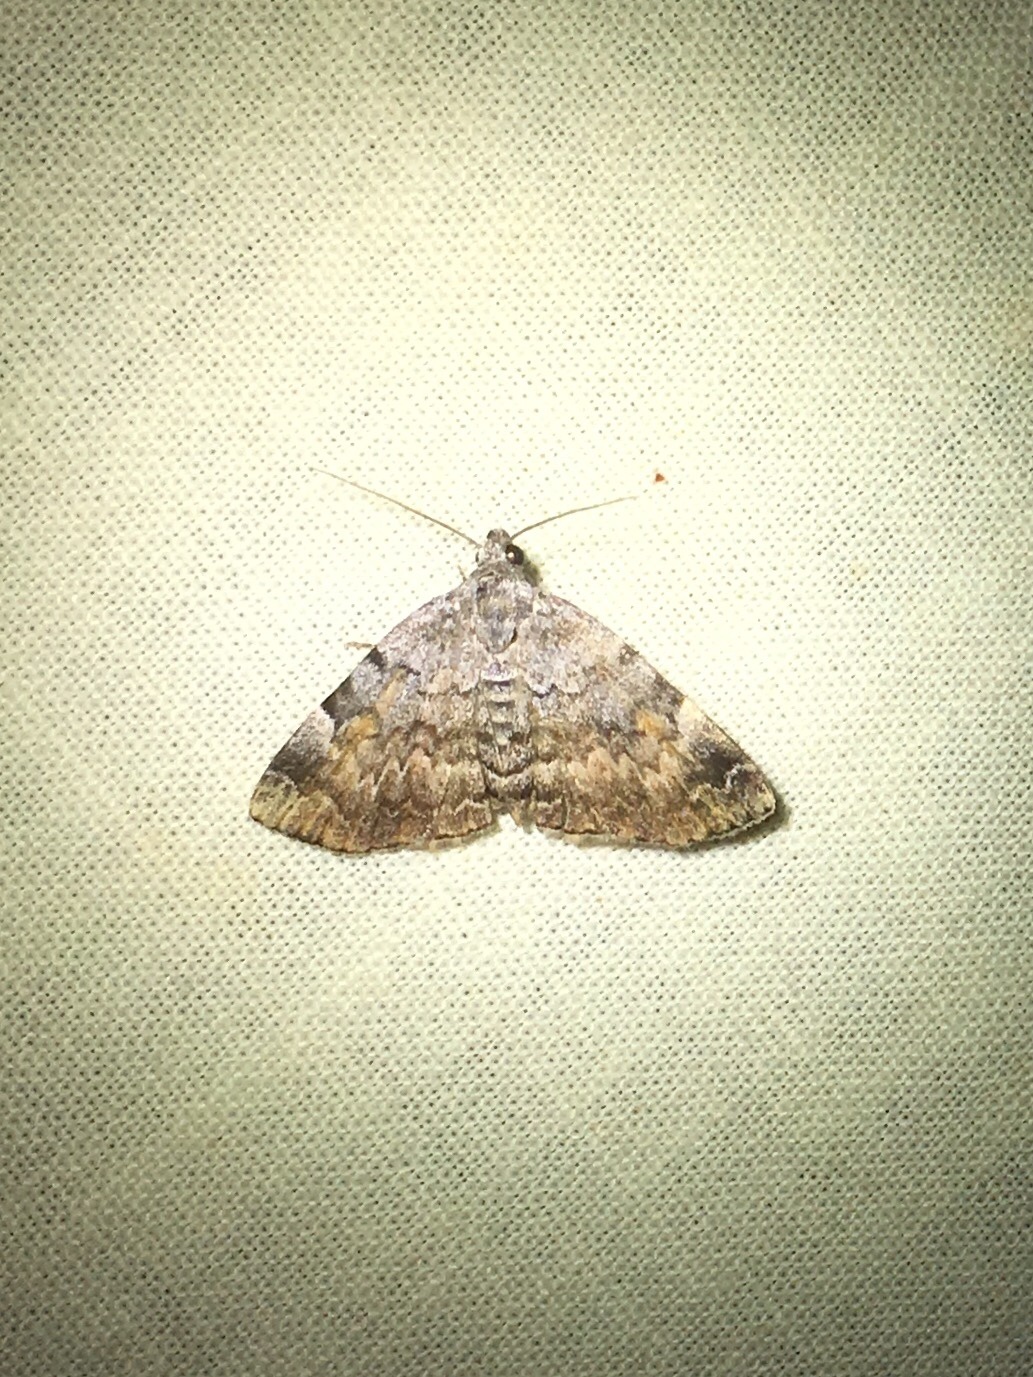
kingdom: Animalia
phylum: Arthropoda
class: Insecta
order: Lepidoptera
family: Erebidae
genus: Idia
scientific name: Idia americalis
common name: American idia moth
